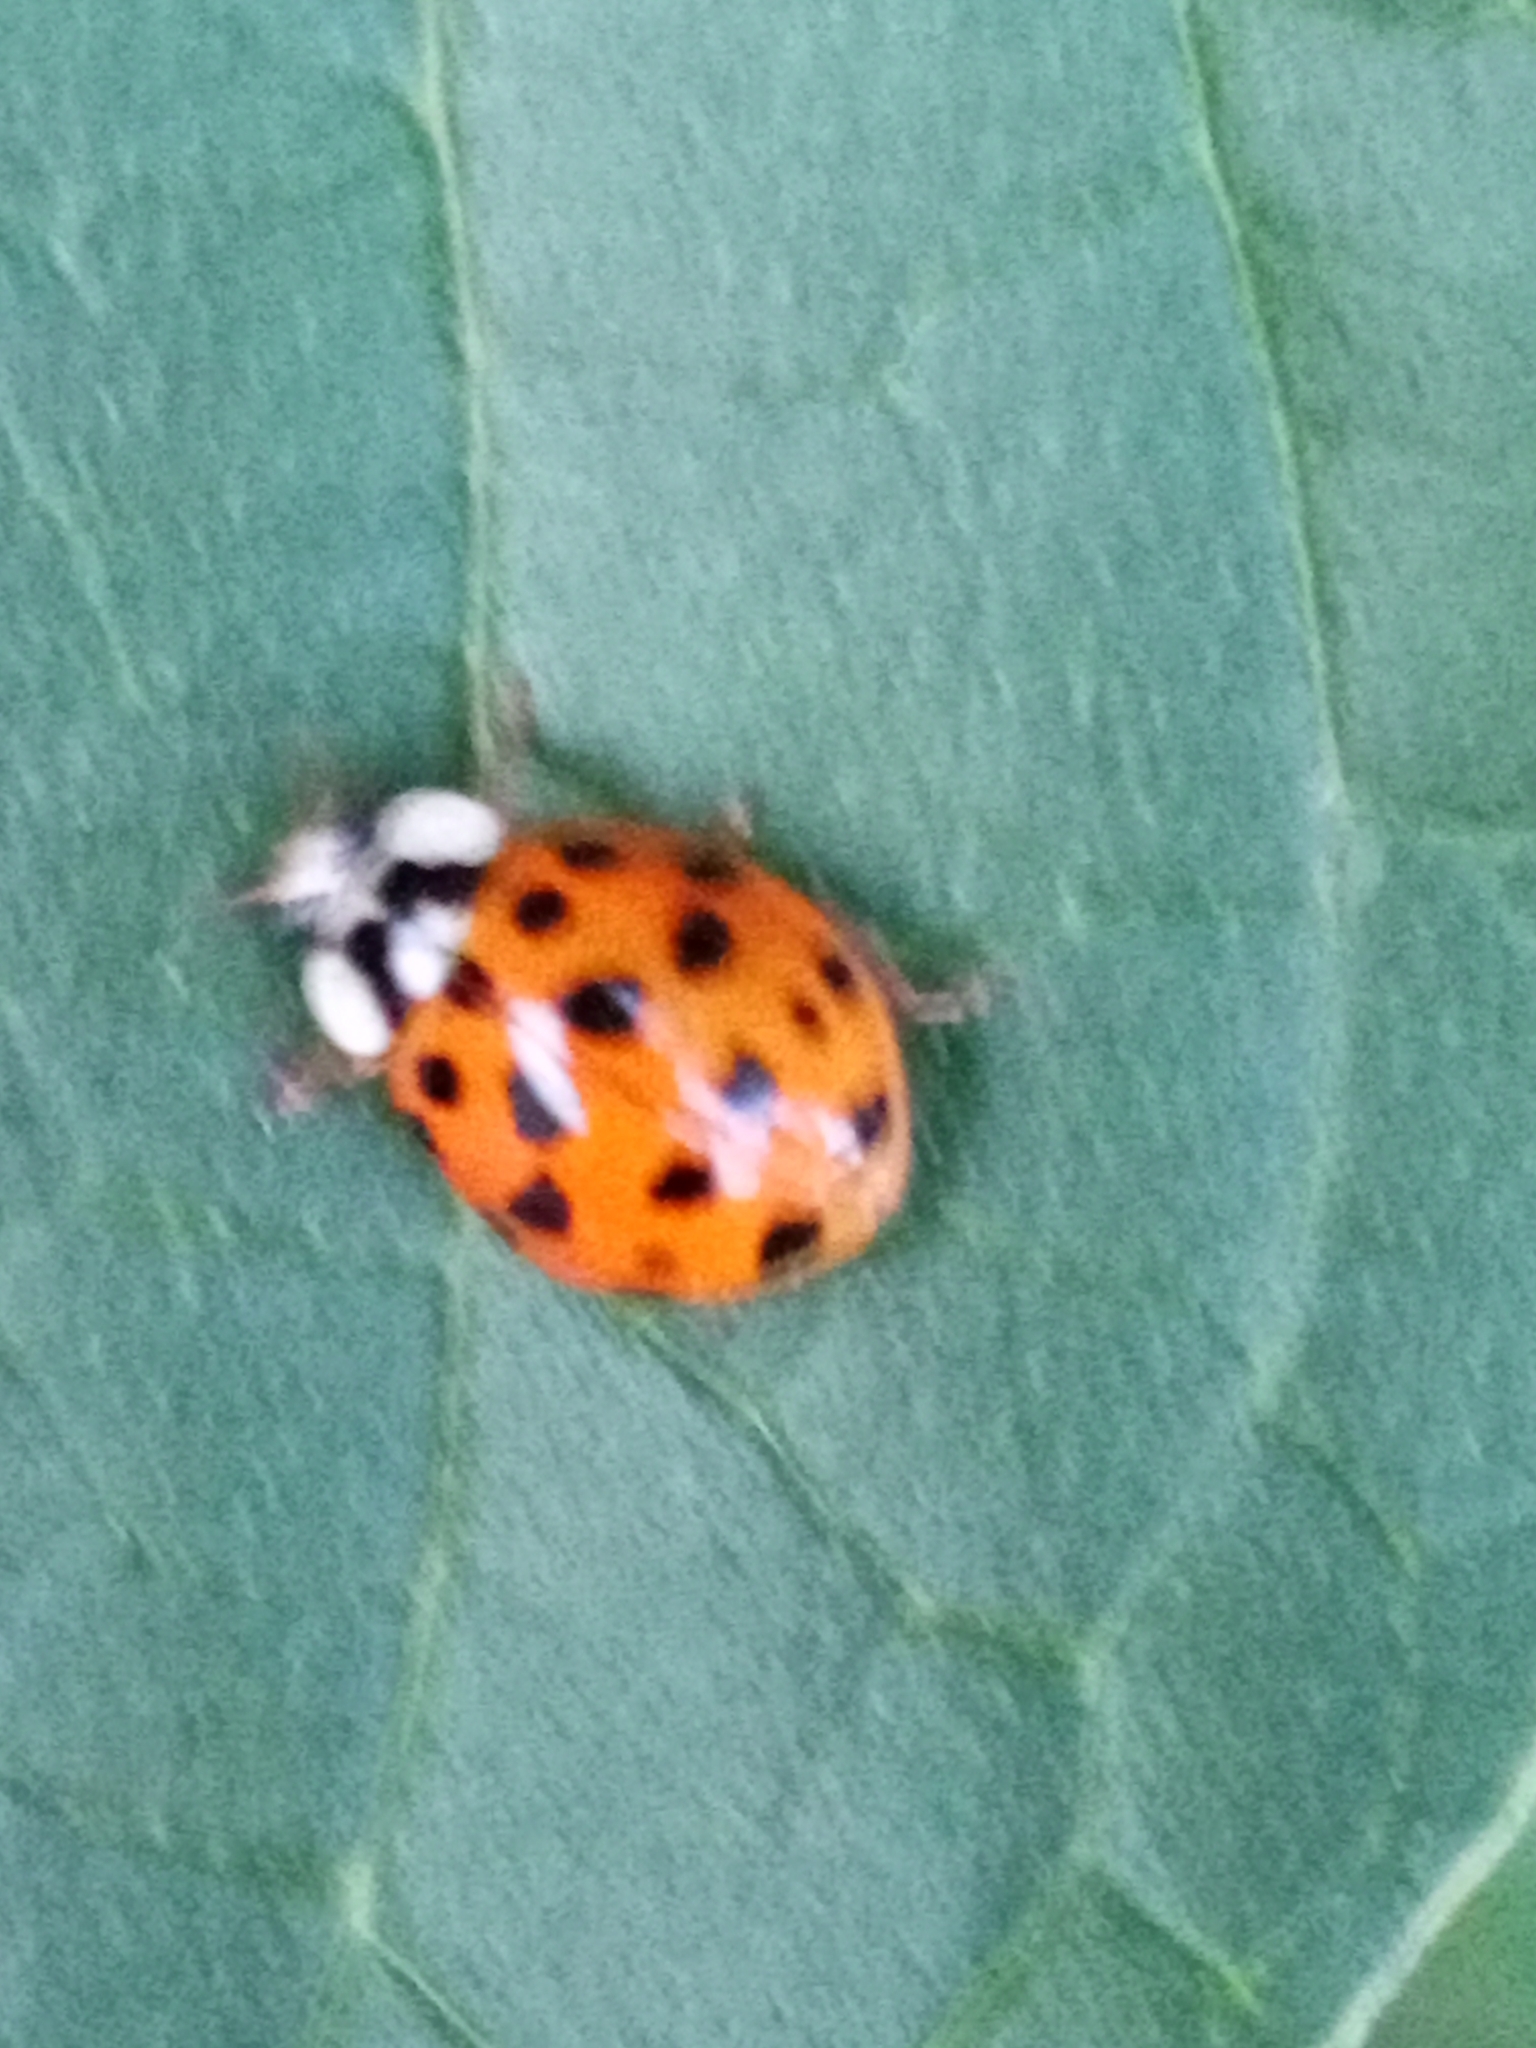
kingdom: Animalia
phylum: Arthropoda
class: Insecta
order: Coleoptera
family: Coccinellidae
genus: Harmonia
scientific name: Harmonia axyridis
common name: Harlequin ladybird
